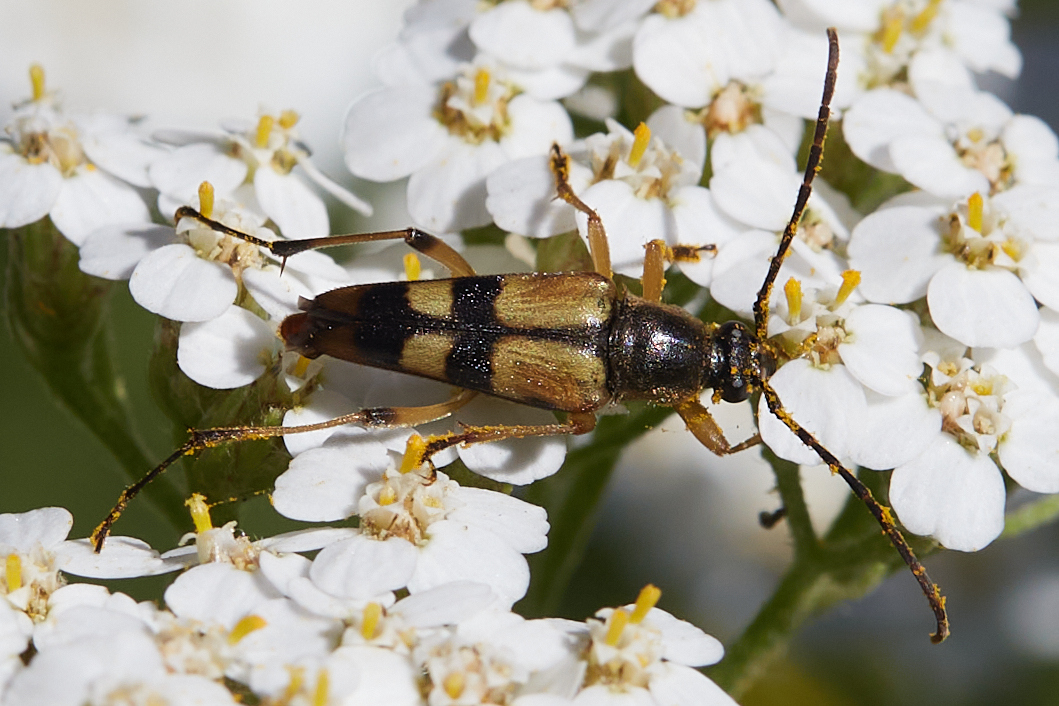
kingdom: Animalia
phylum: Arthropoda
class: Insecta
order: Coleoptera
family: Cerambycidae
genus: Etorofus
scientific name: Etorofus obliteratus
